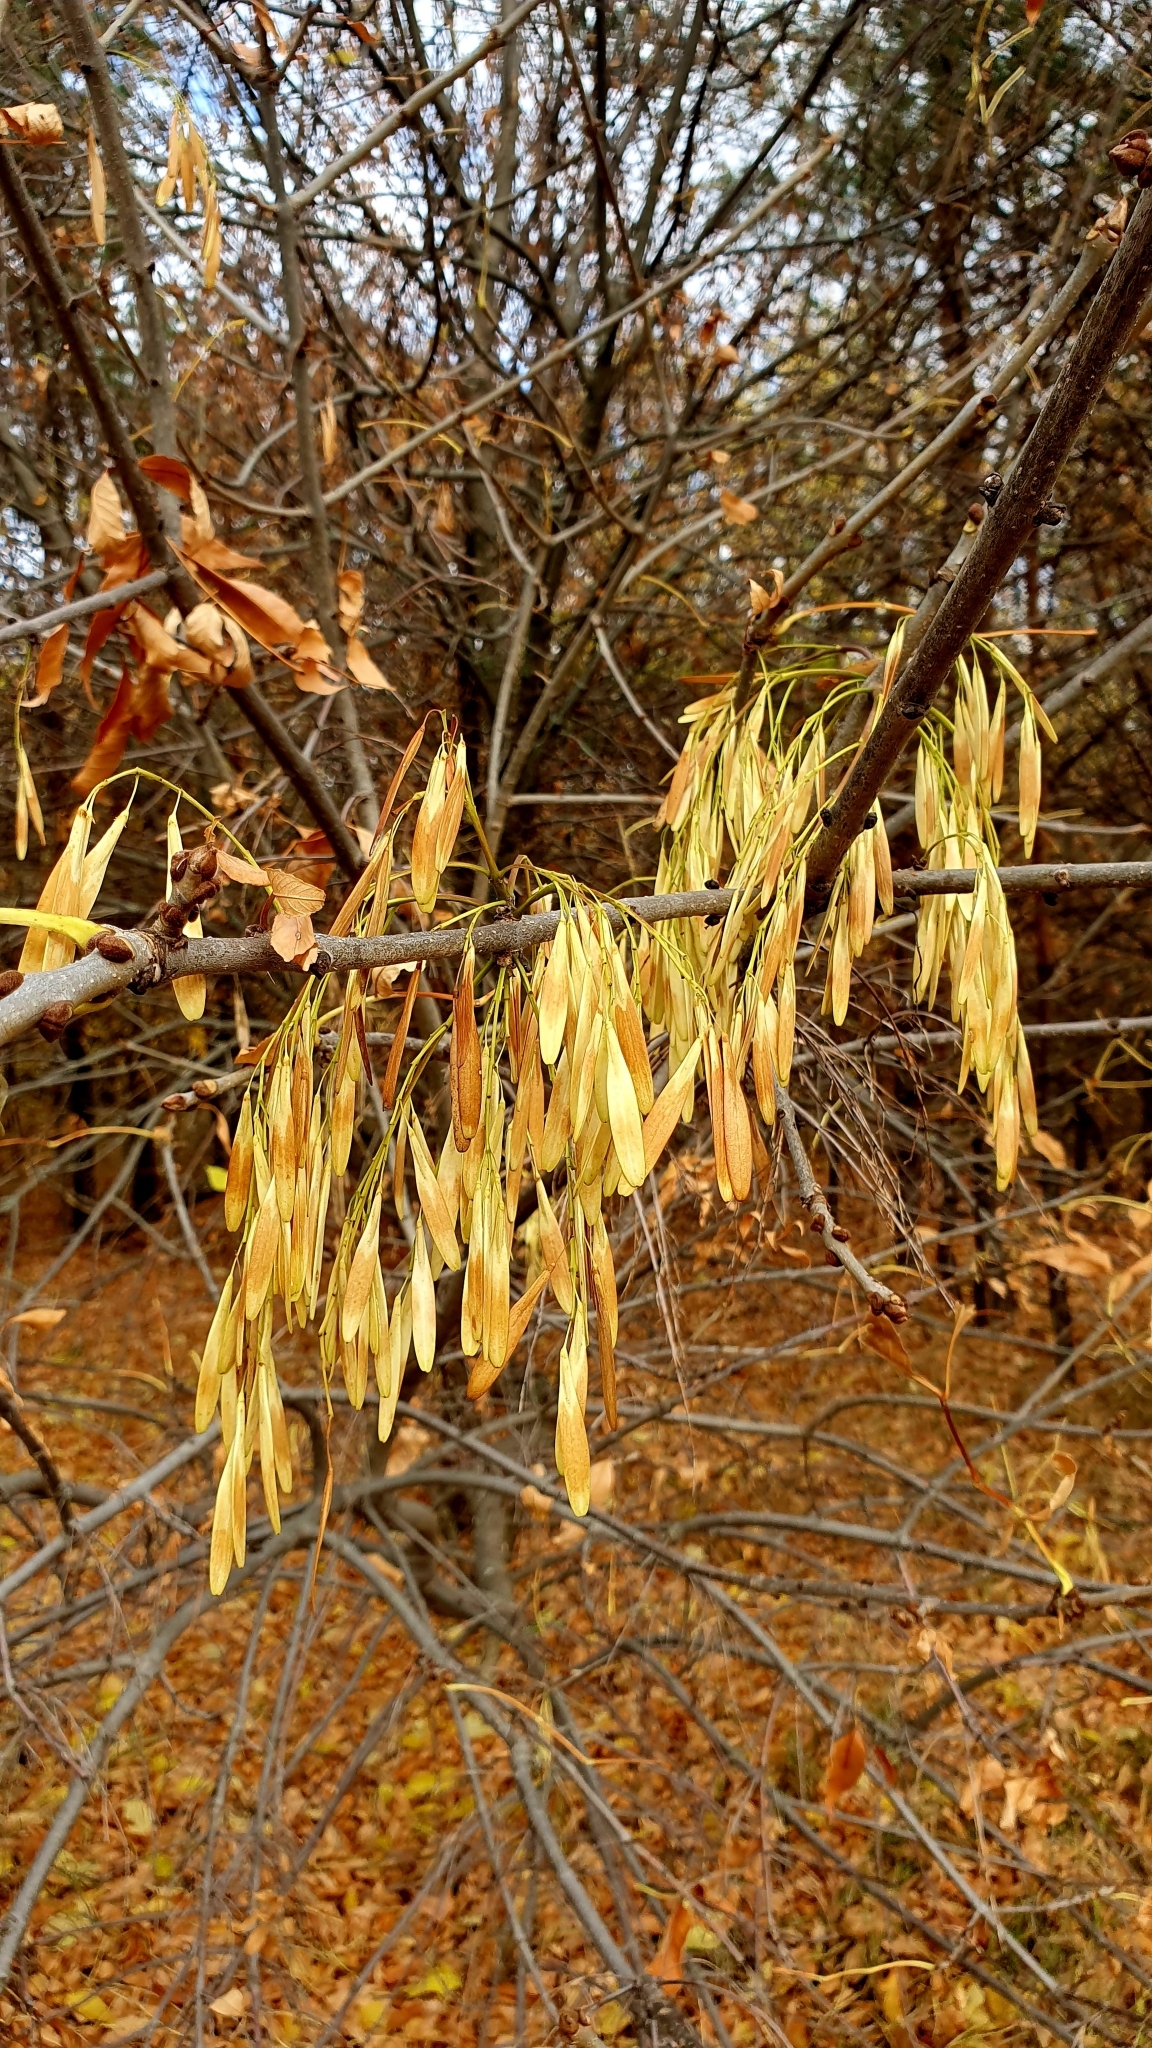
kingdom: Plantae
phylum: Tracheophyta
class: Magnoliopsida
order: Lamiales
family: Oleaceae
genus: Fraxinus
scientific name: Fraxinus pennsylvanica
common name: Green ash
